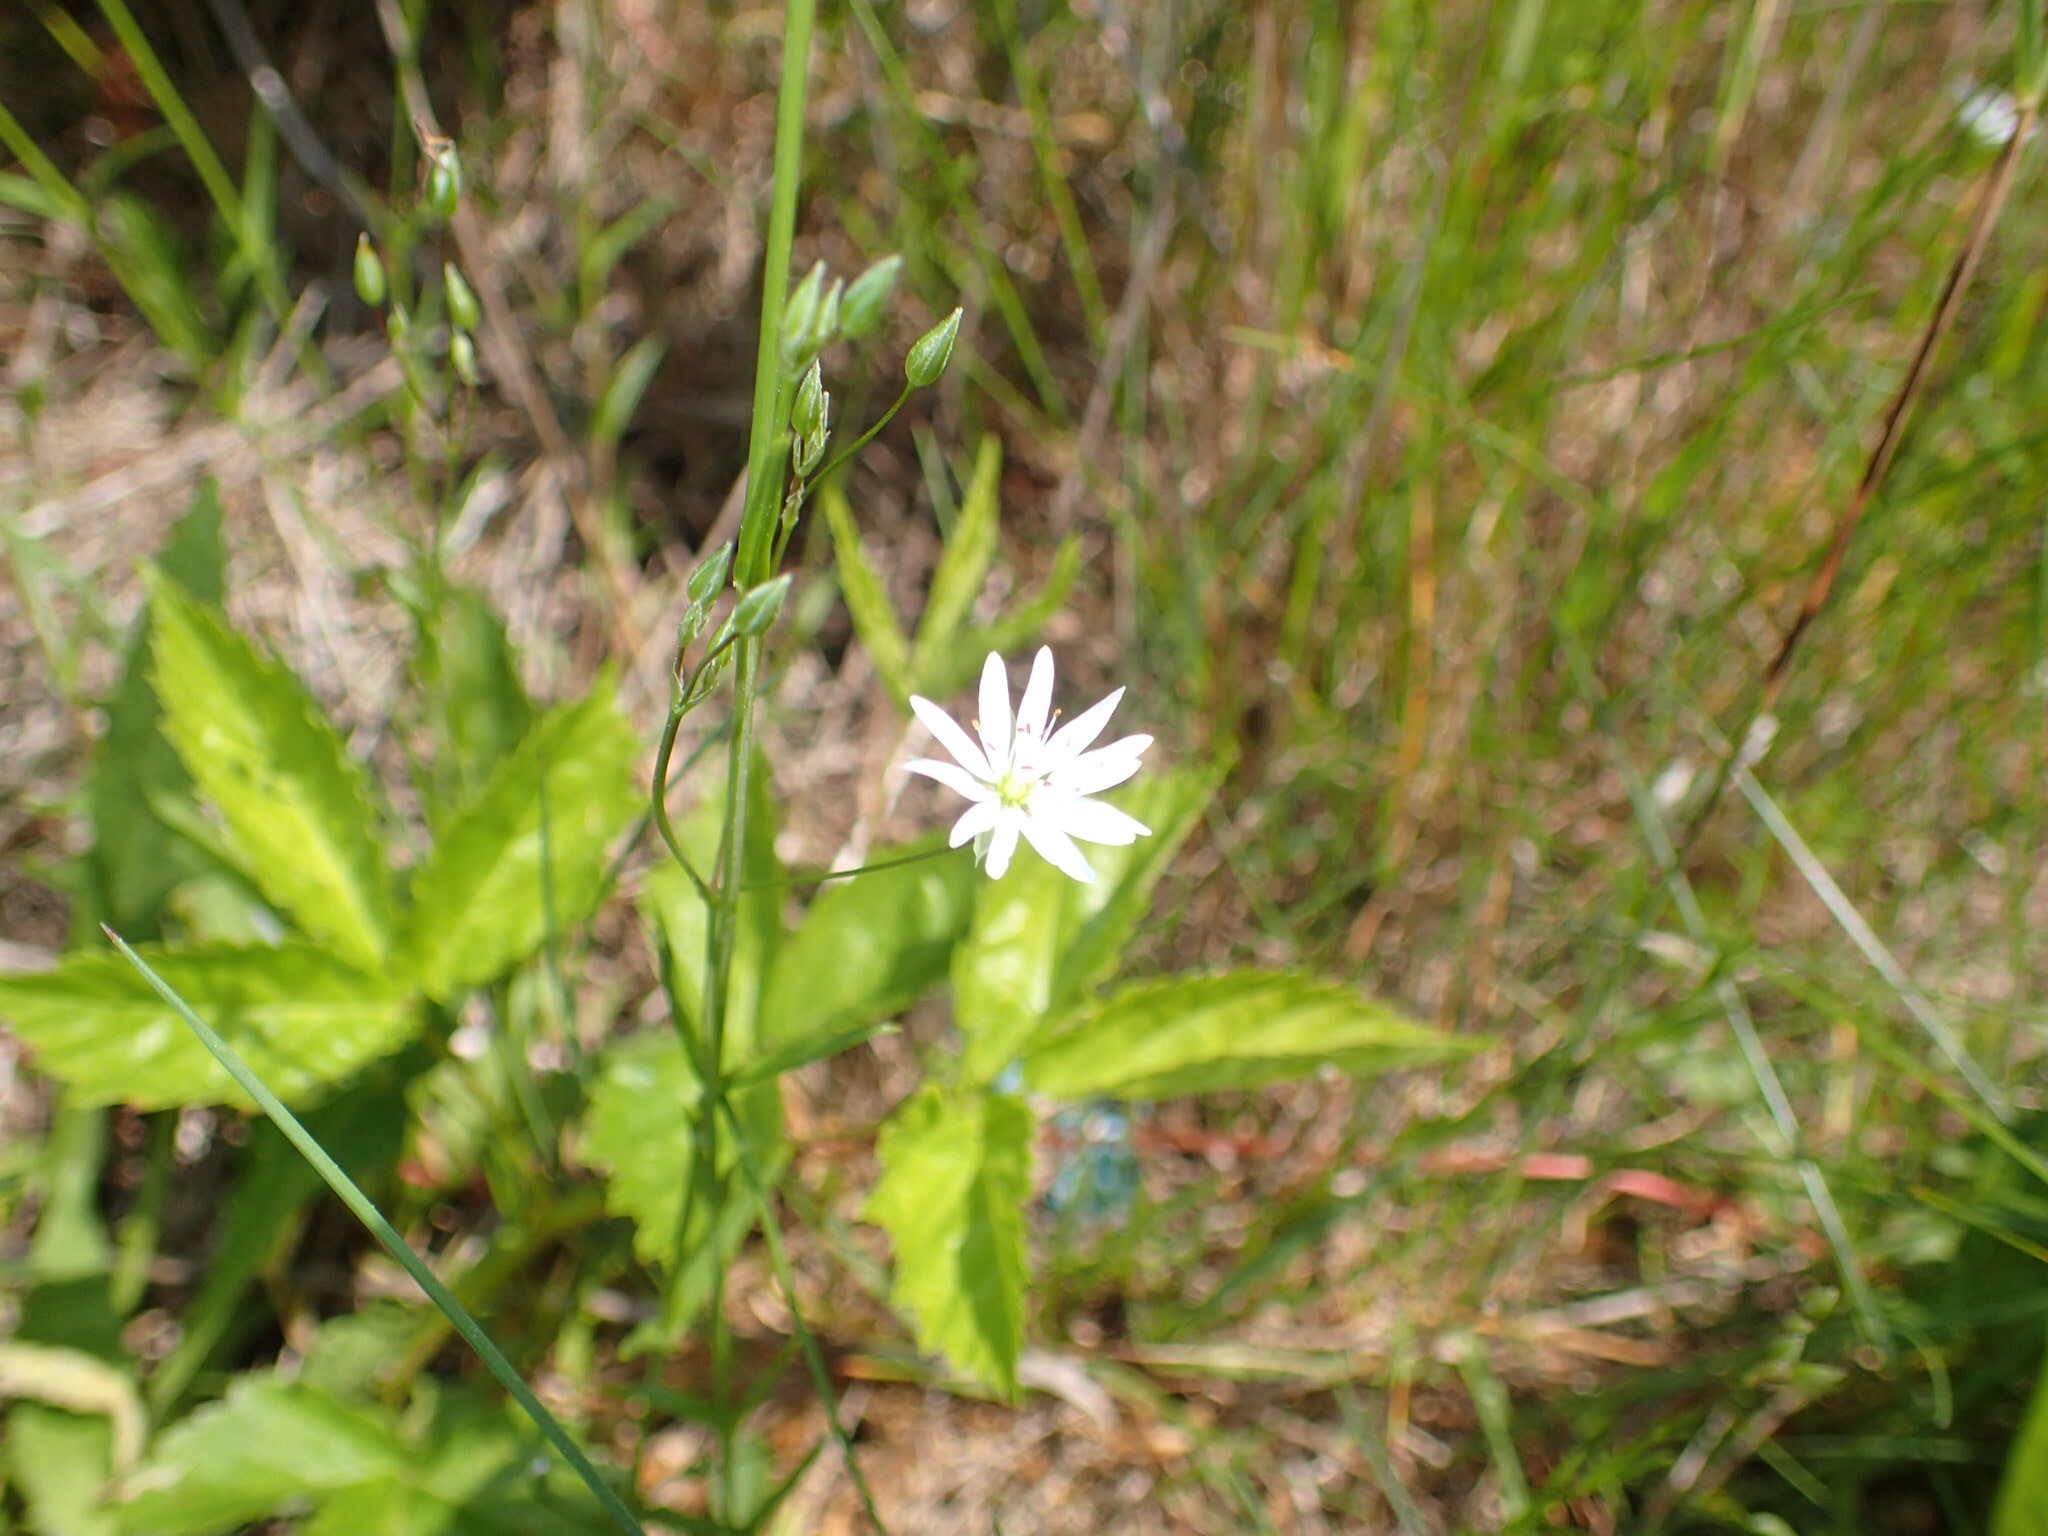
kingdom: Plantae
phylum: Tracheophyta
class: Magnoliopsida
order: Caryophyllales
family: Caryophyllaceae
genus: Stellaria
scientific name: Stellaria graminea
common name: Grass-like starwort
